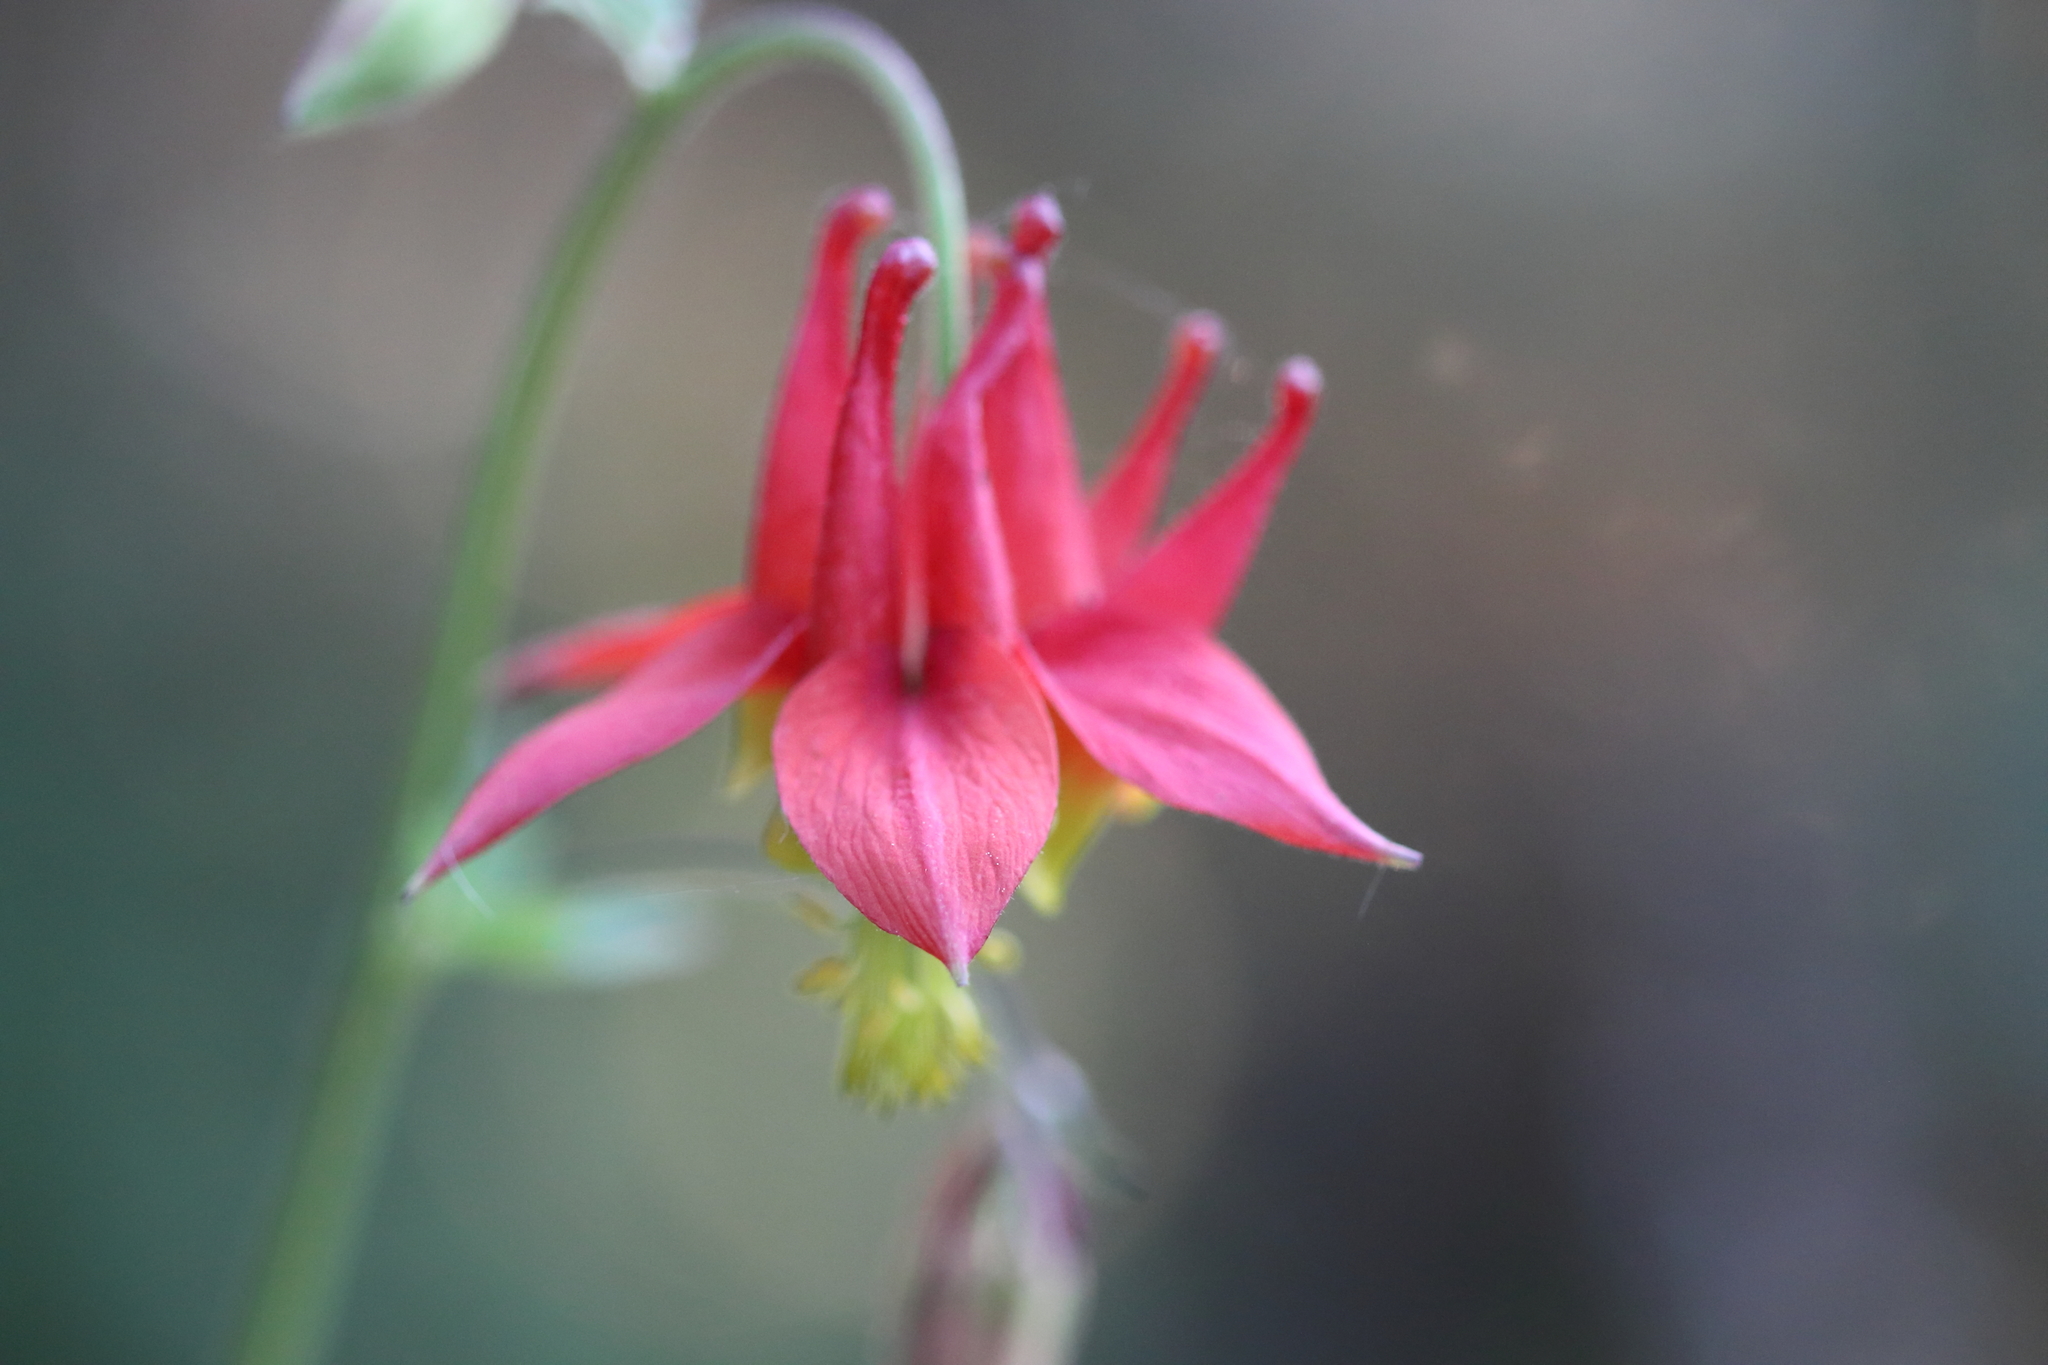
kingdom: Plantae
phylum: Tracheophyta
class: Magnoliopsida
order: Ranunculales
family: Ranunculaceae
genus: Aquilegia
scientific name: Aquilegia formosa
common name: Sitka columbine
